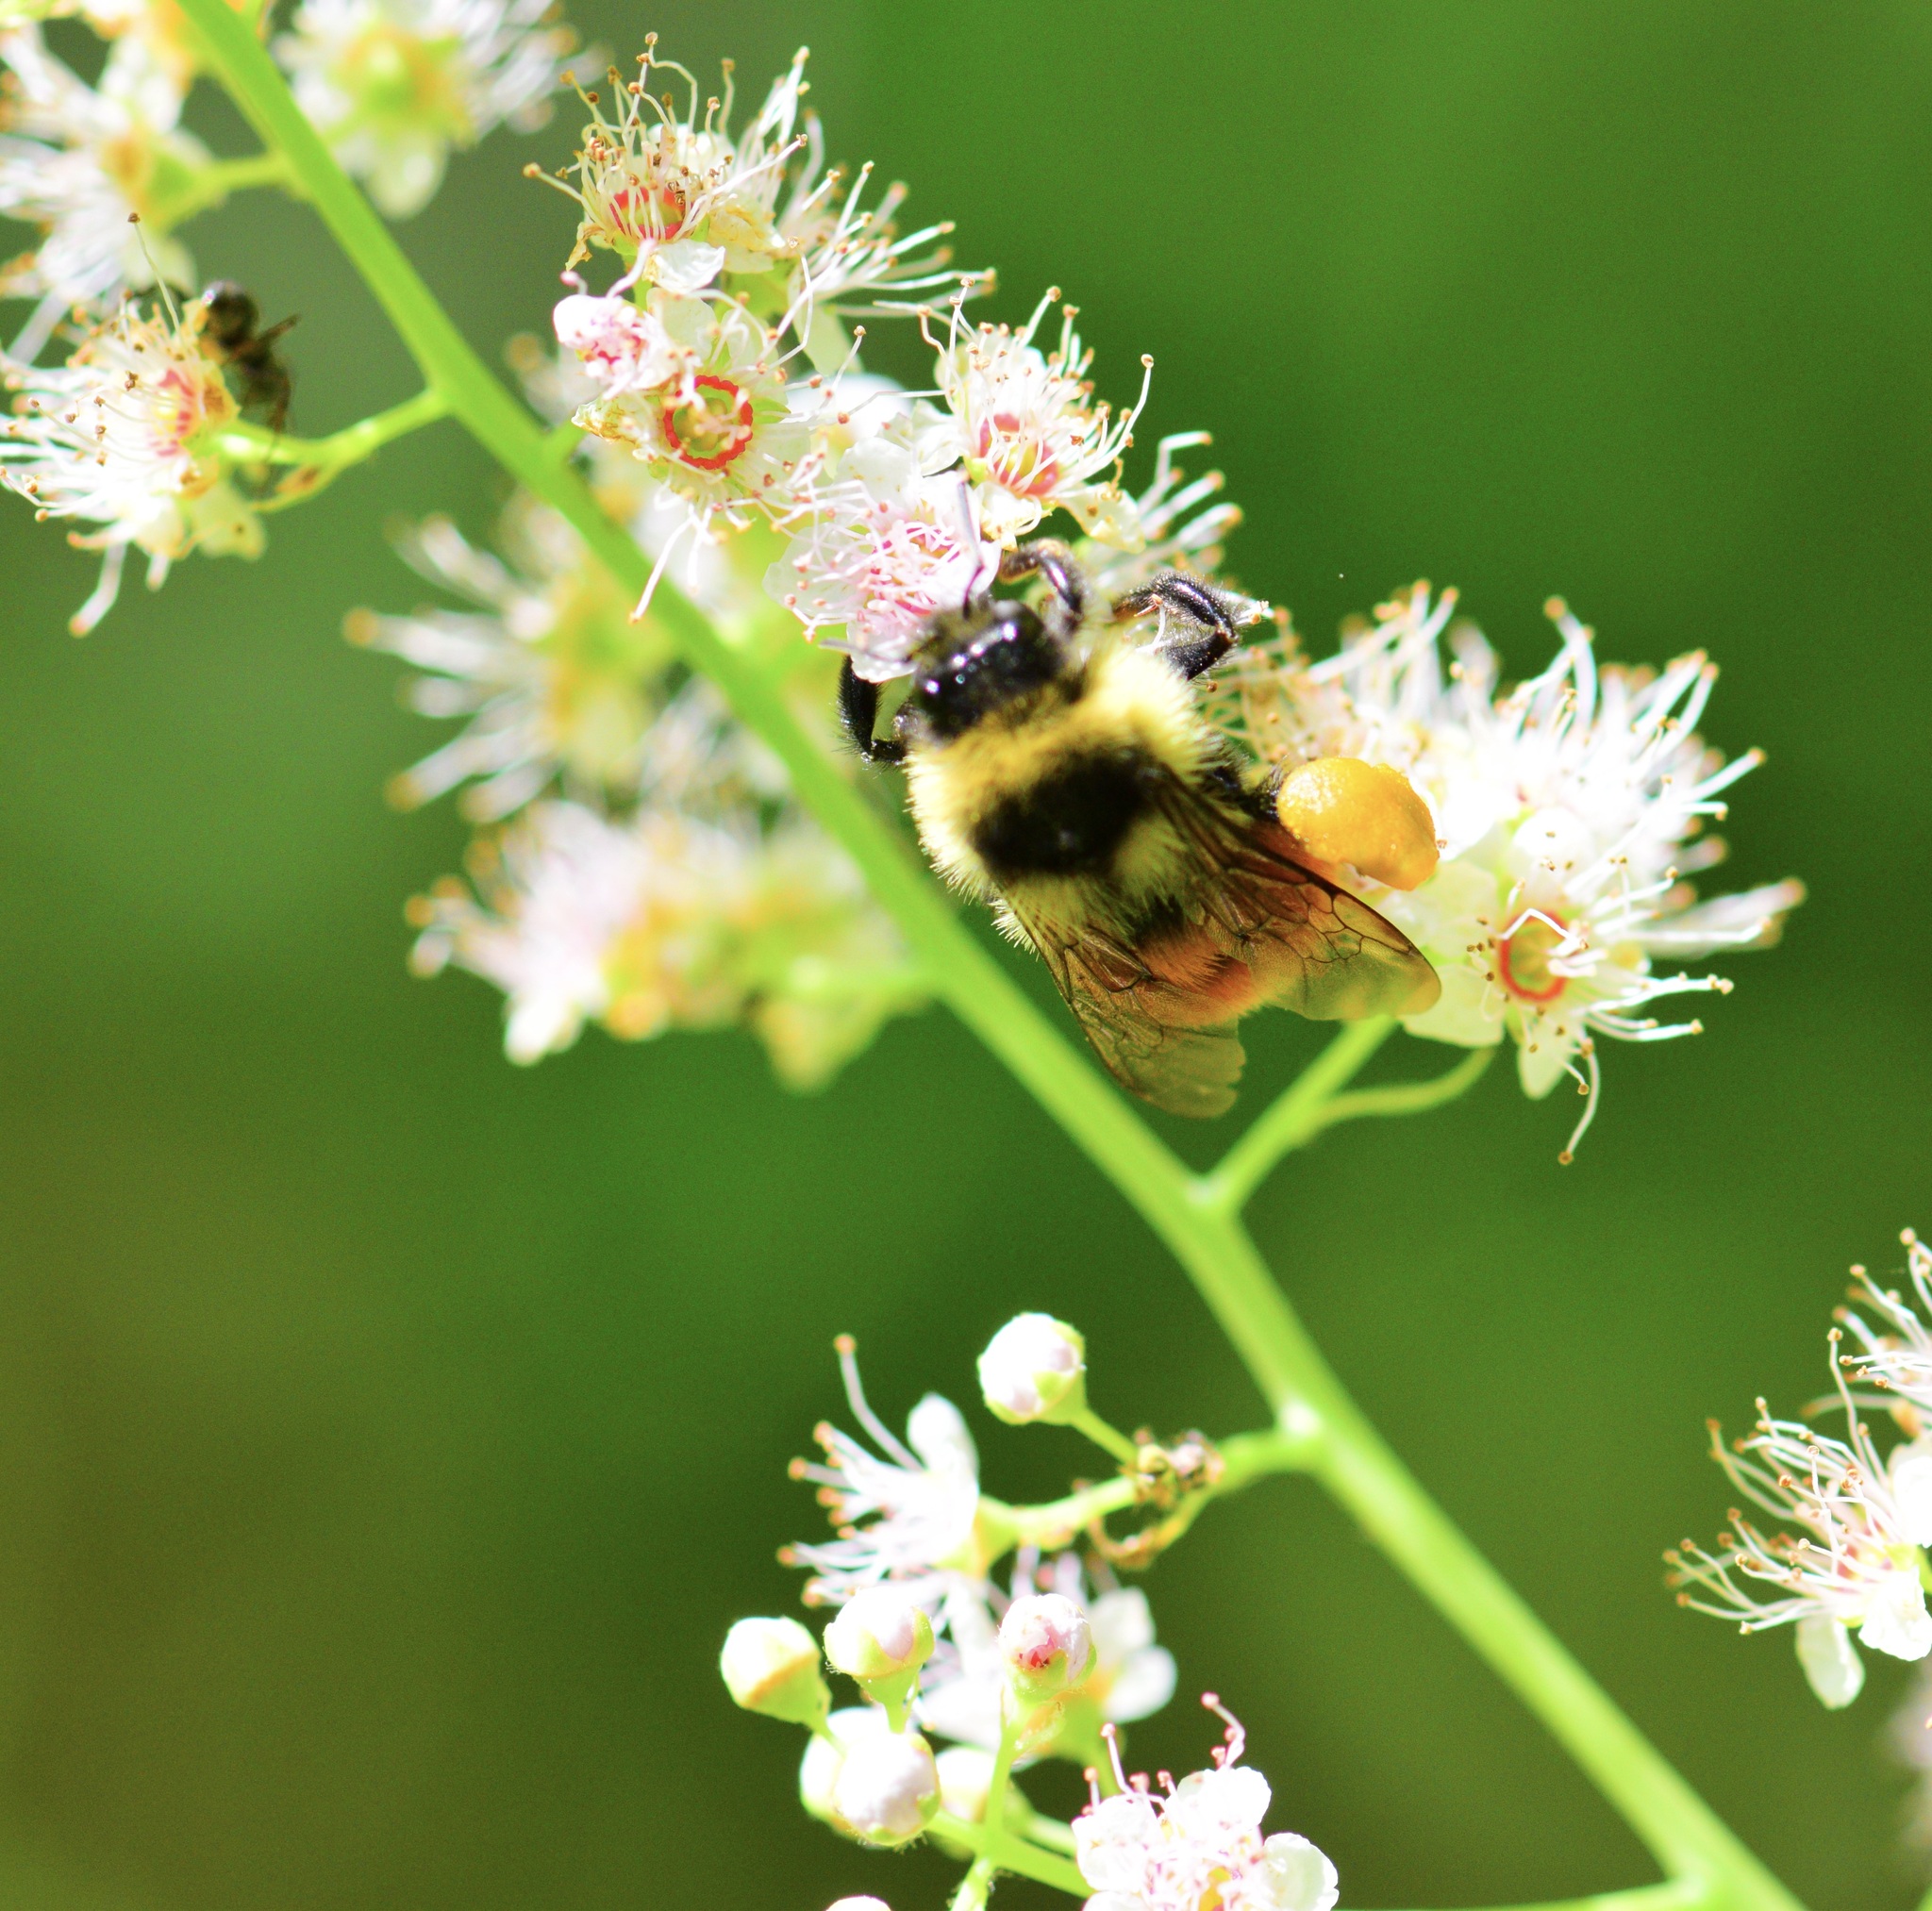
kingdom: Animalia
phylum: Arthropoda
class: Insecta
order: Hymenoptera
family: Apidae
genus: Bombus
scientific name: Bombus ternarius
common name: Tri-colored bumble bee
